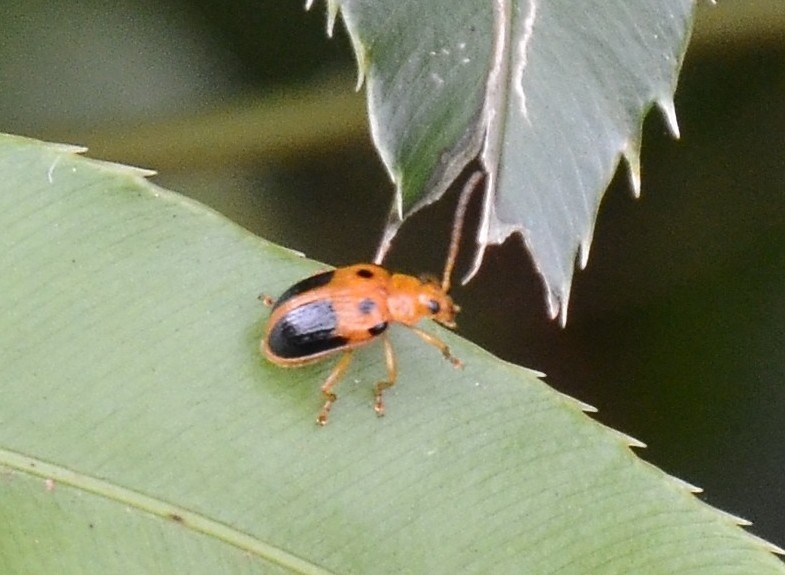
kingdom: Animalia
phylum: Arthropoda
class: Insecta
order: Coleoptera
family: Chrysomelidae
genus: Sphenoraia
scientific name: Sphenoraia
